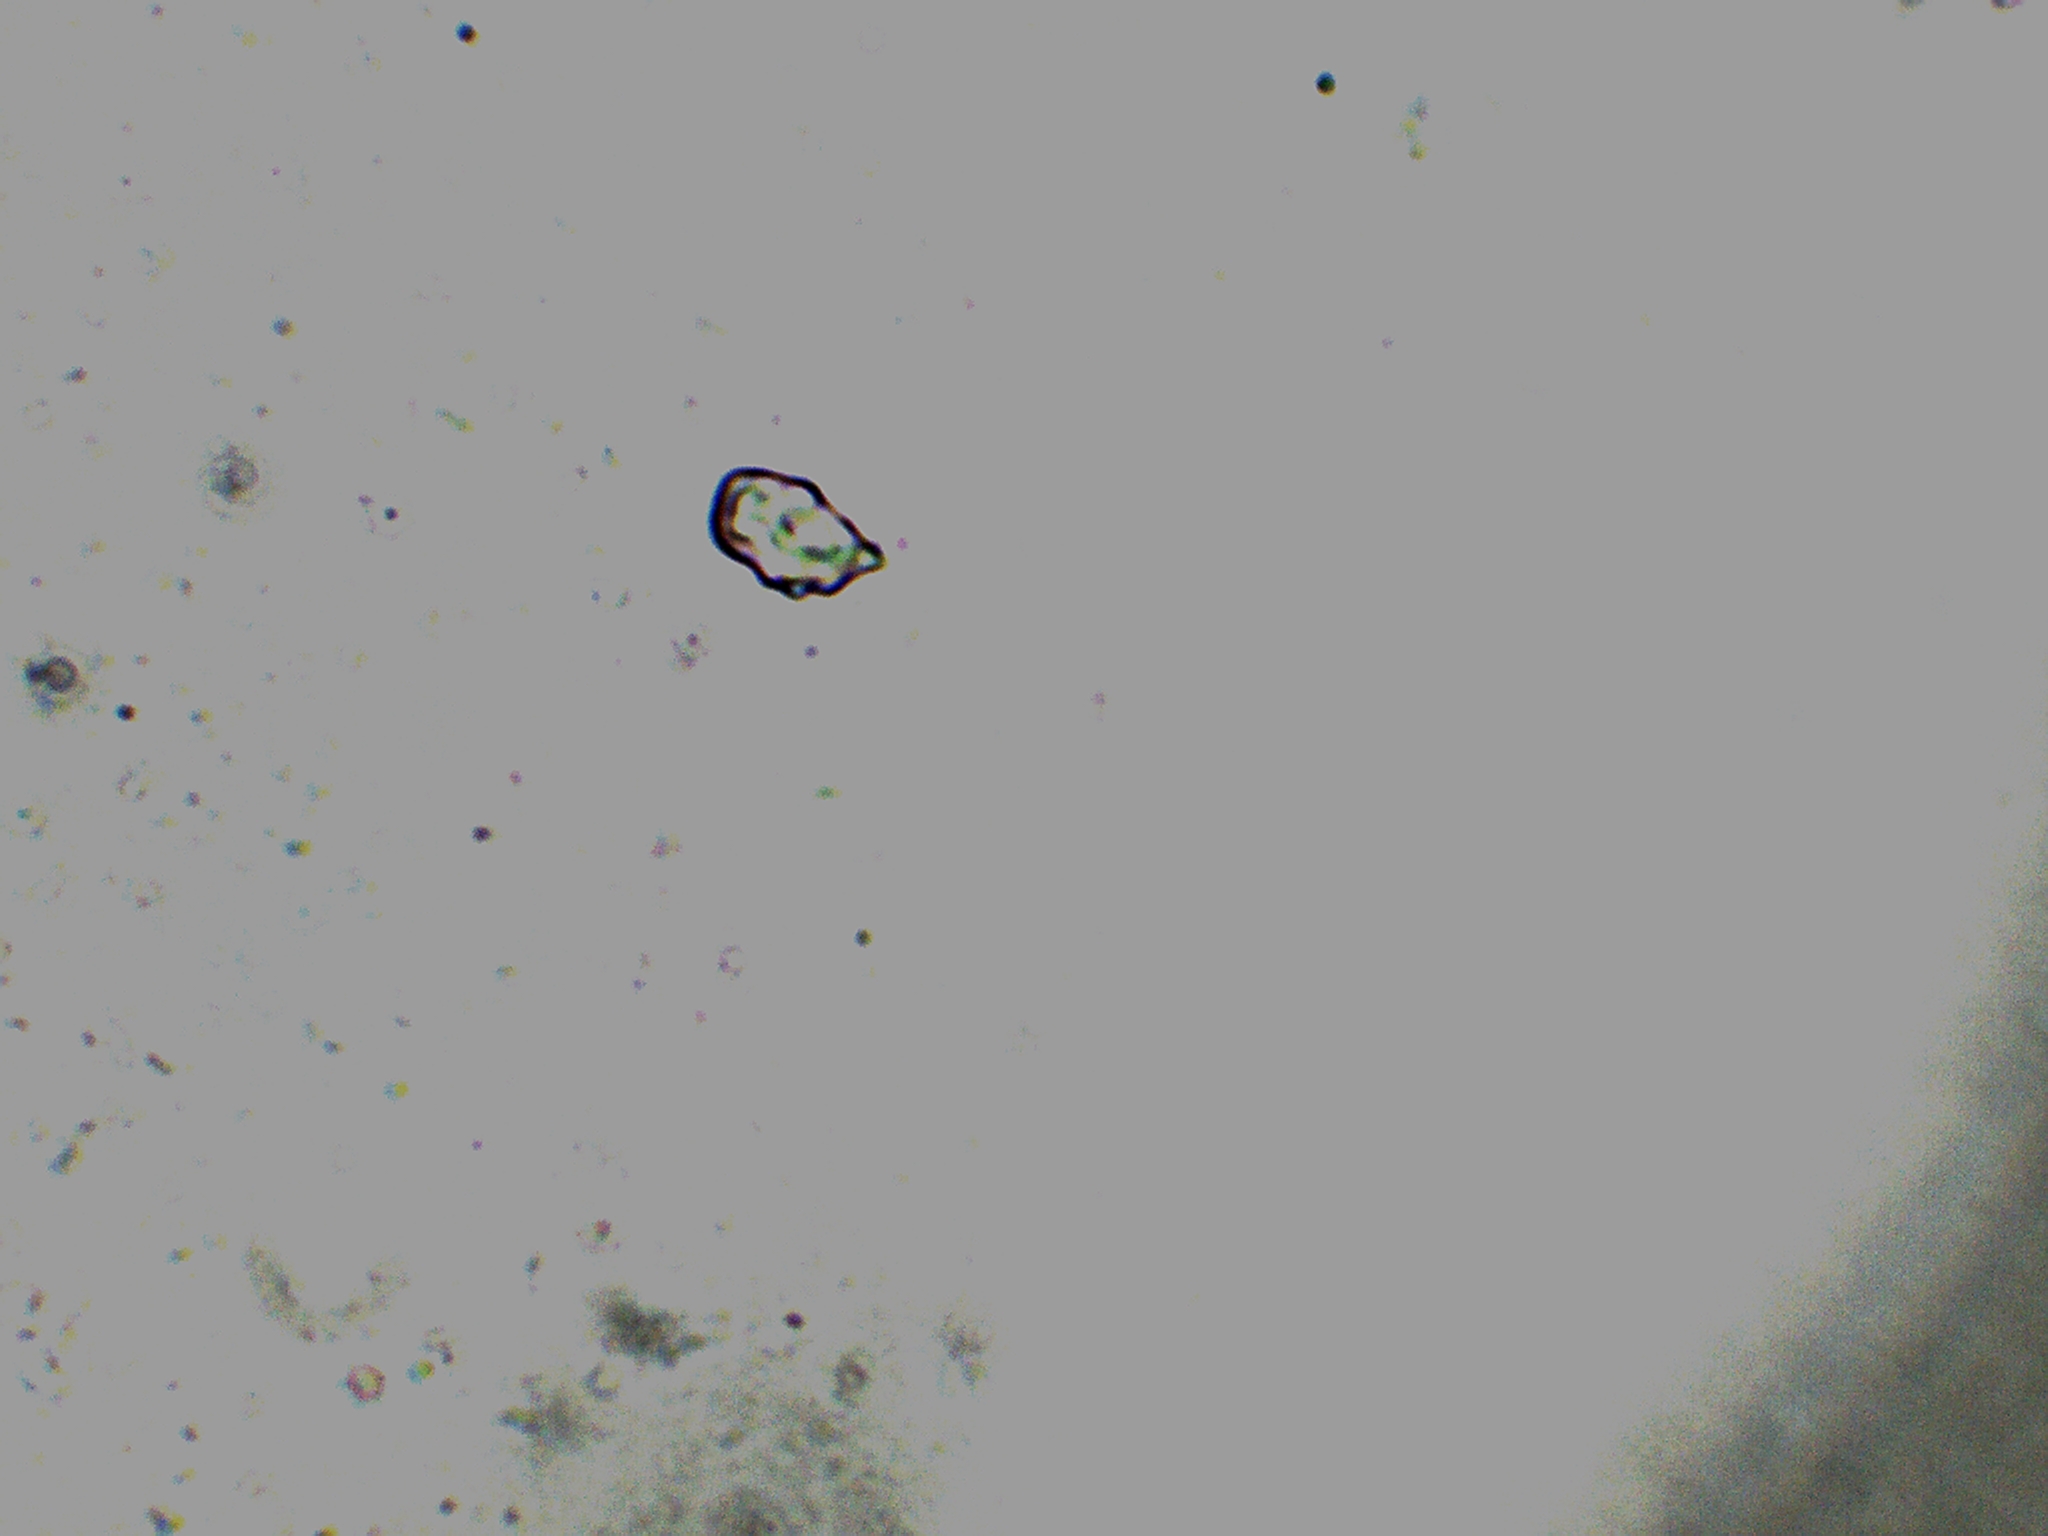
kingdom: Fungi
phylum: Basidiomycota
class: Agaricomycetes
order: Agaricales
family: Entolomataceae
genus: Entoloma
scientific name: Entoloma elodes
